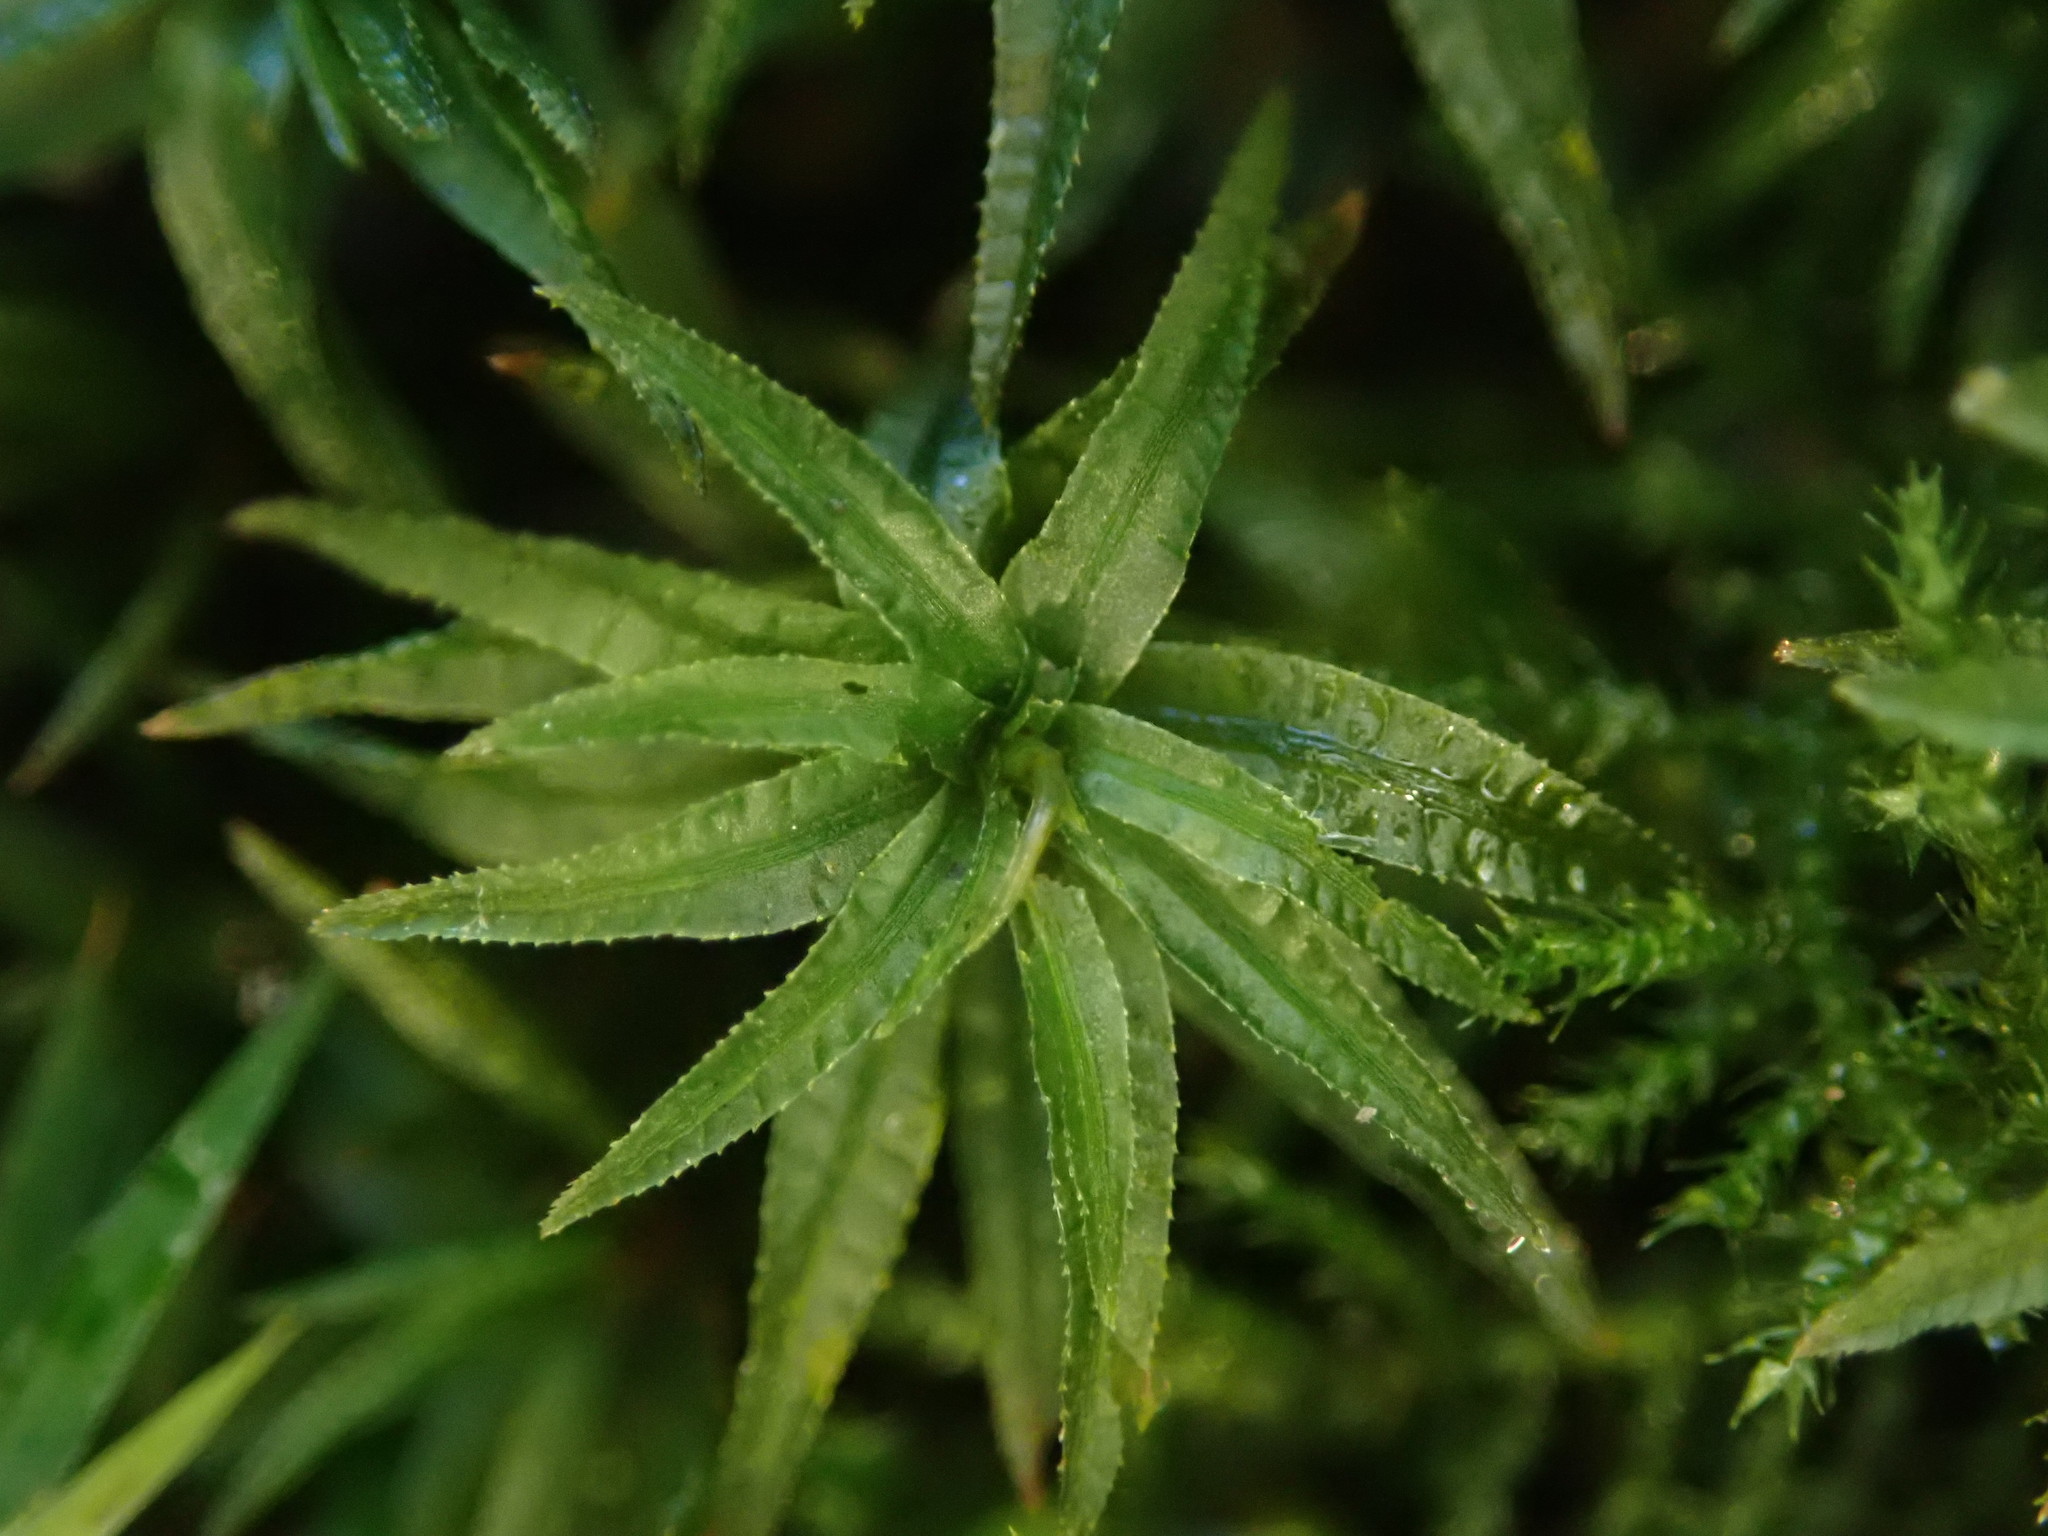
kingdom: Plantae
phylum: Bryophyta
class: Polytrichopsida
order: Polytrichales
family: Polytrichaceae
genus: Atrichum
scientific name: Atrichum undulatum
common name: Common smoothcap
